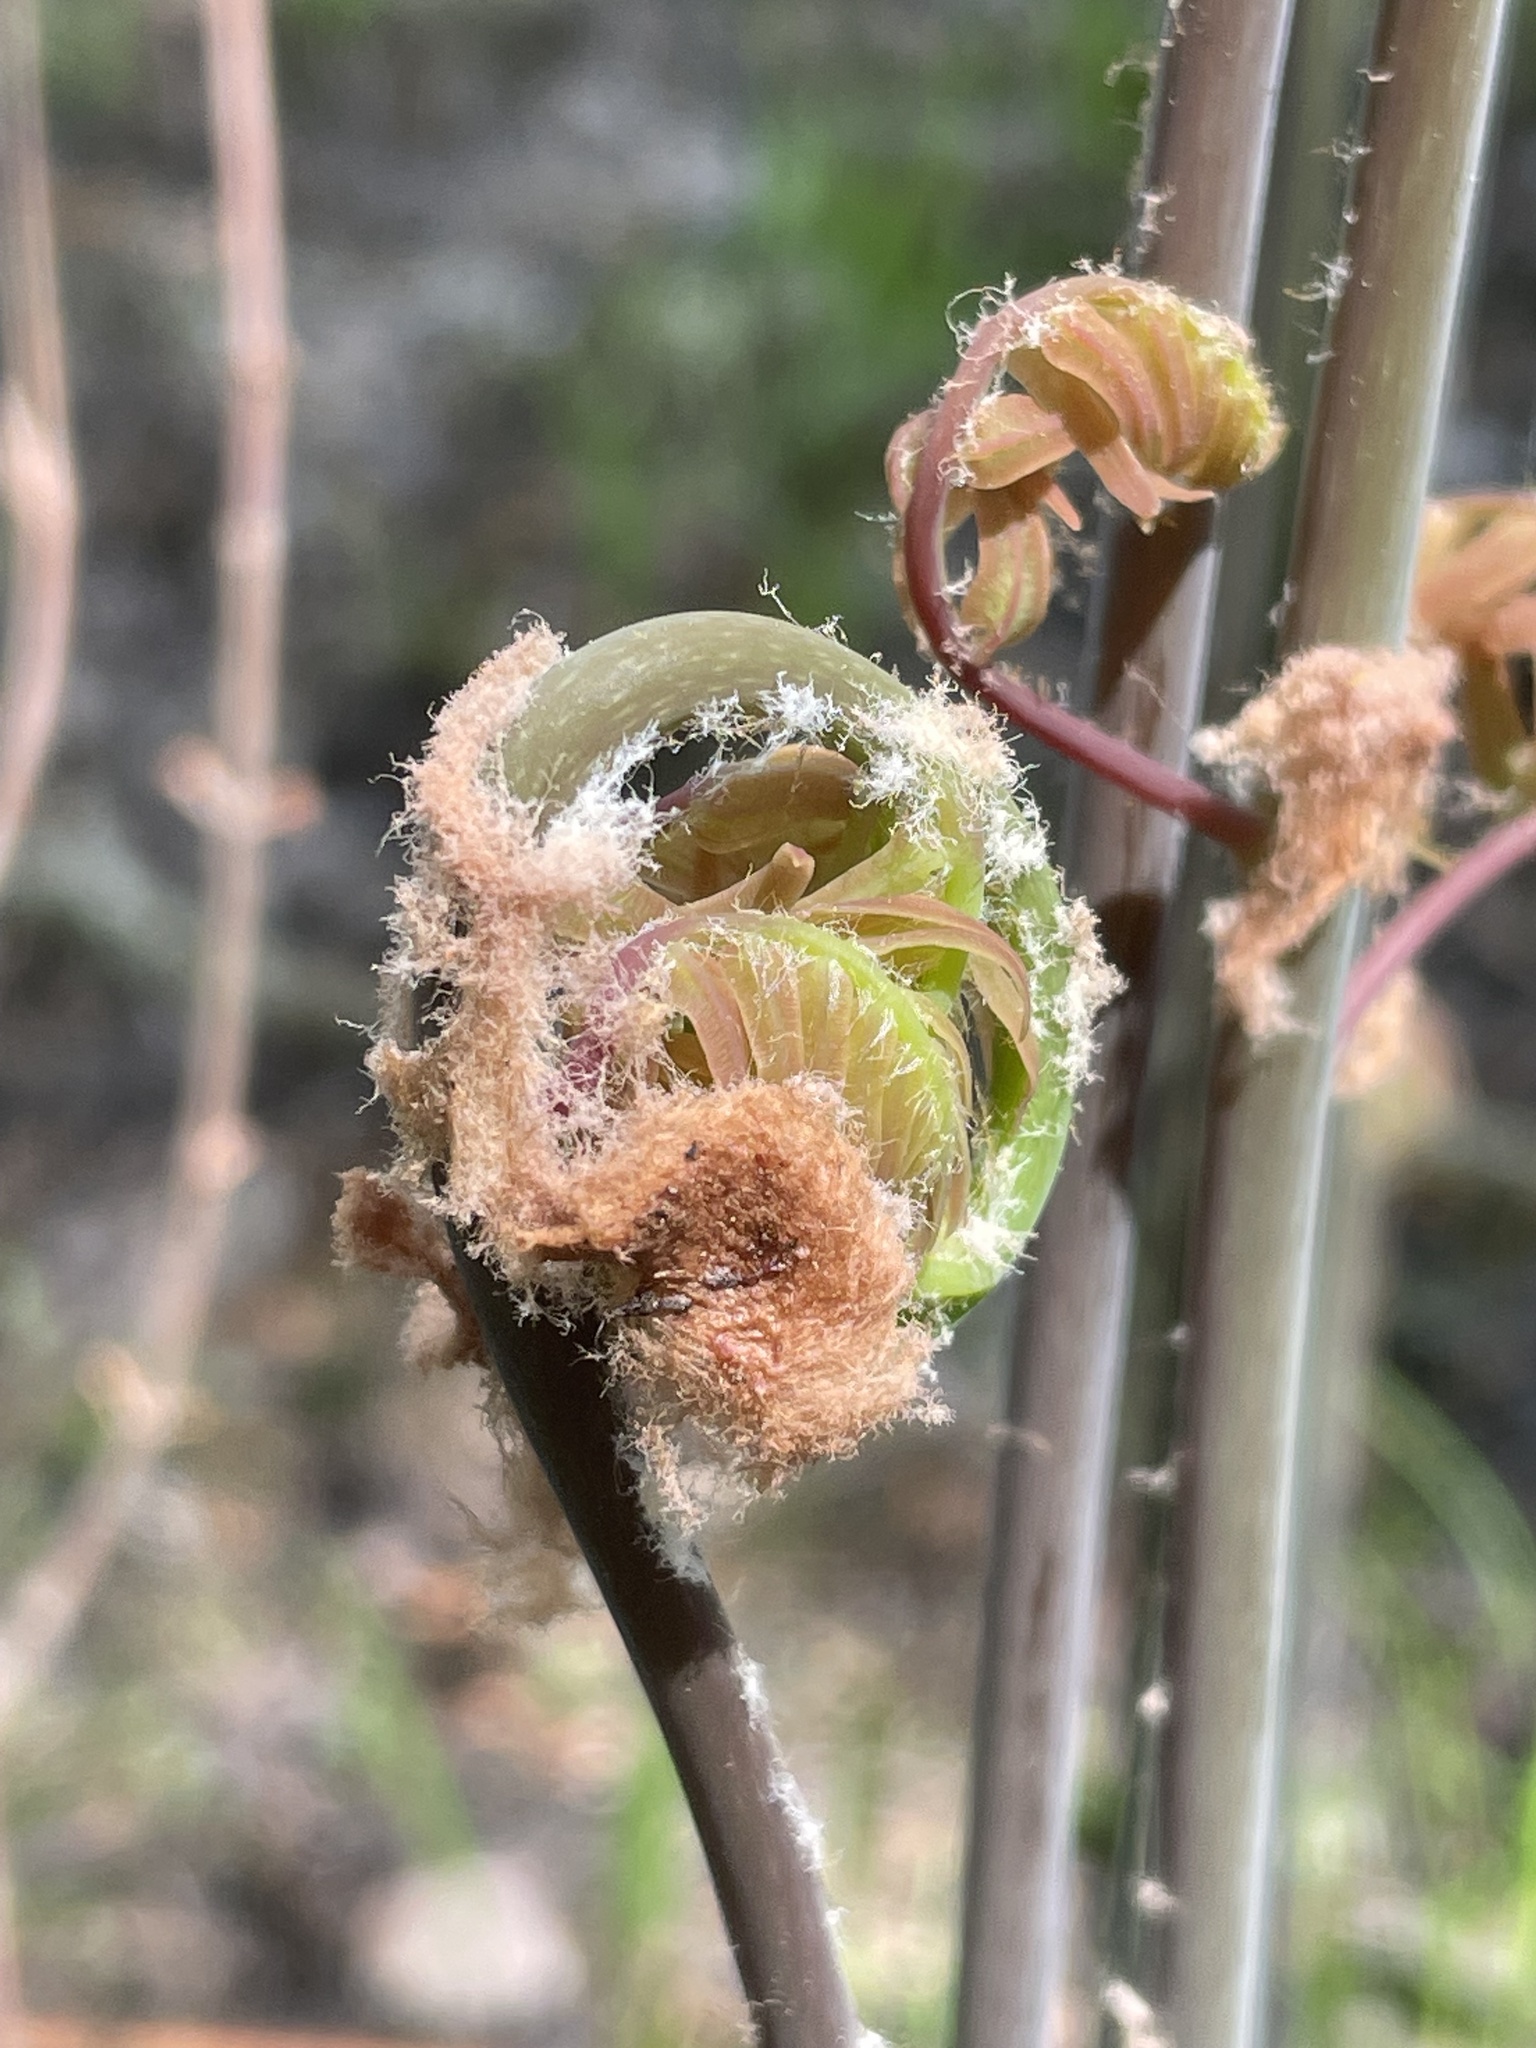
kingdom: Plantae
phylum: Tracheophyta
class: Polypodiopsida
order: Osmundales
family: Osmundaceae
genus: Osmunda
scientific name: Osmunda spectabilis
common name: American royal fern
